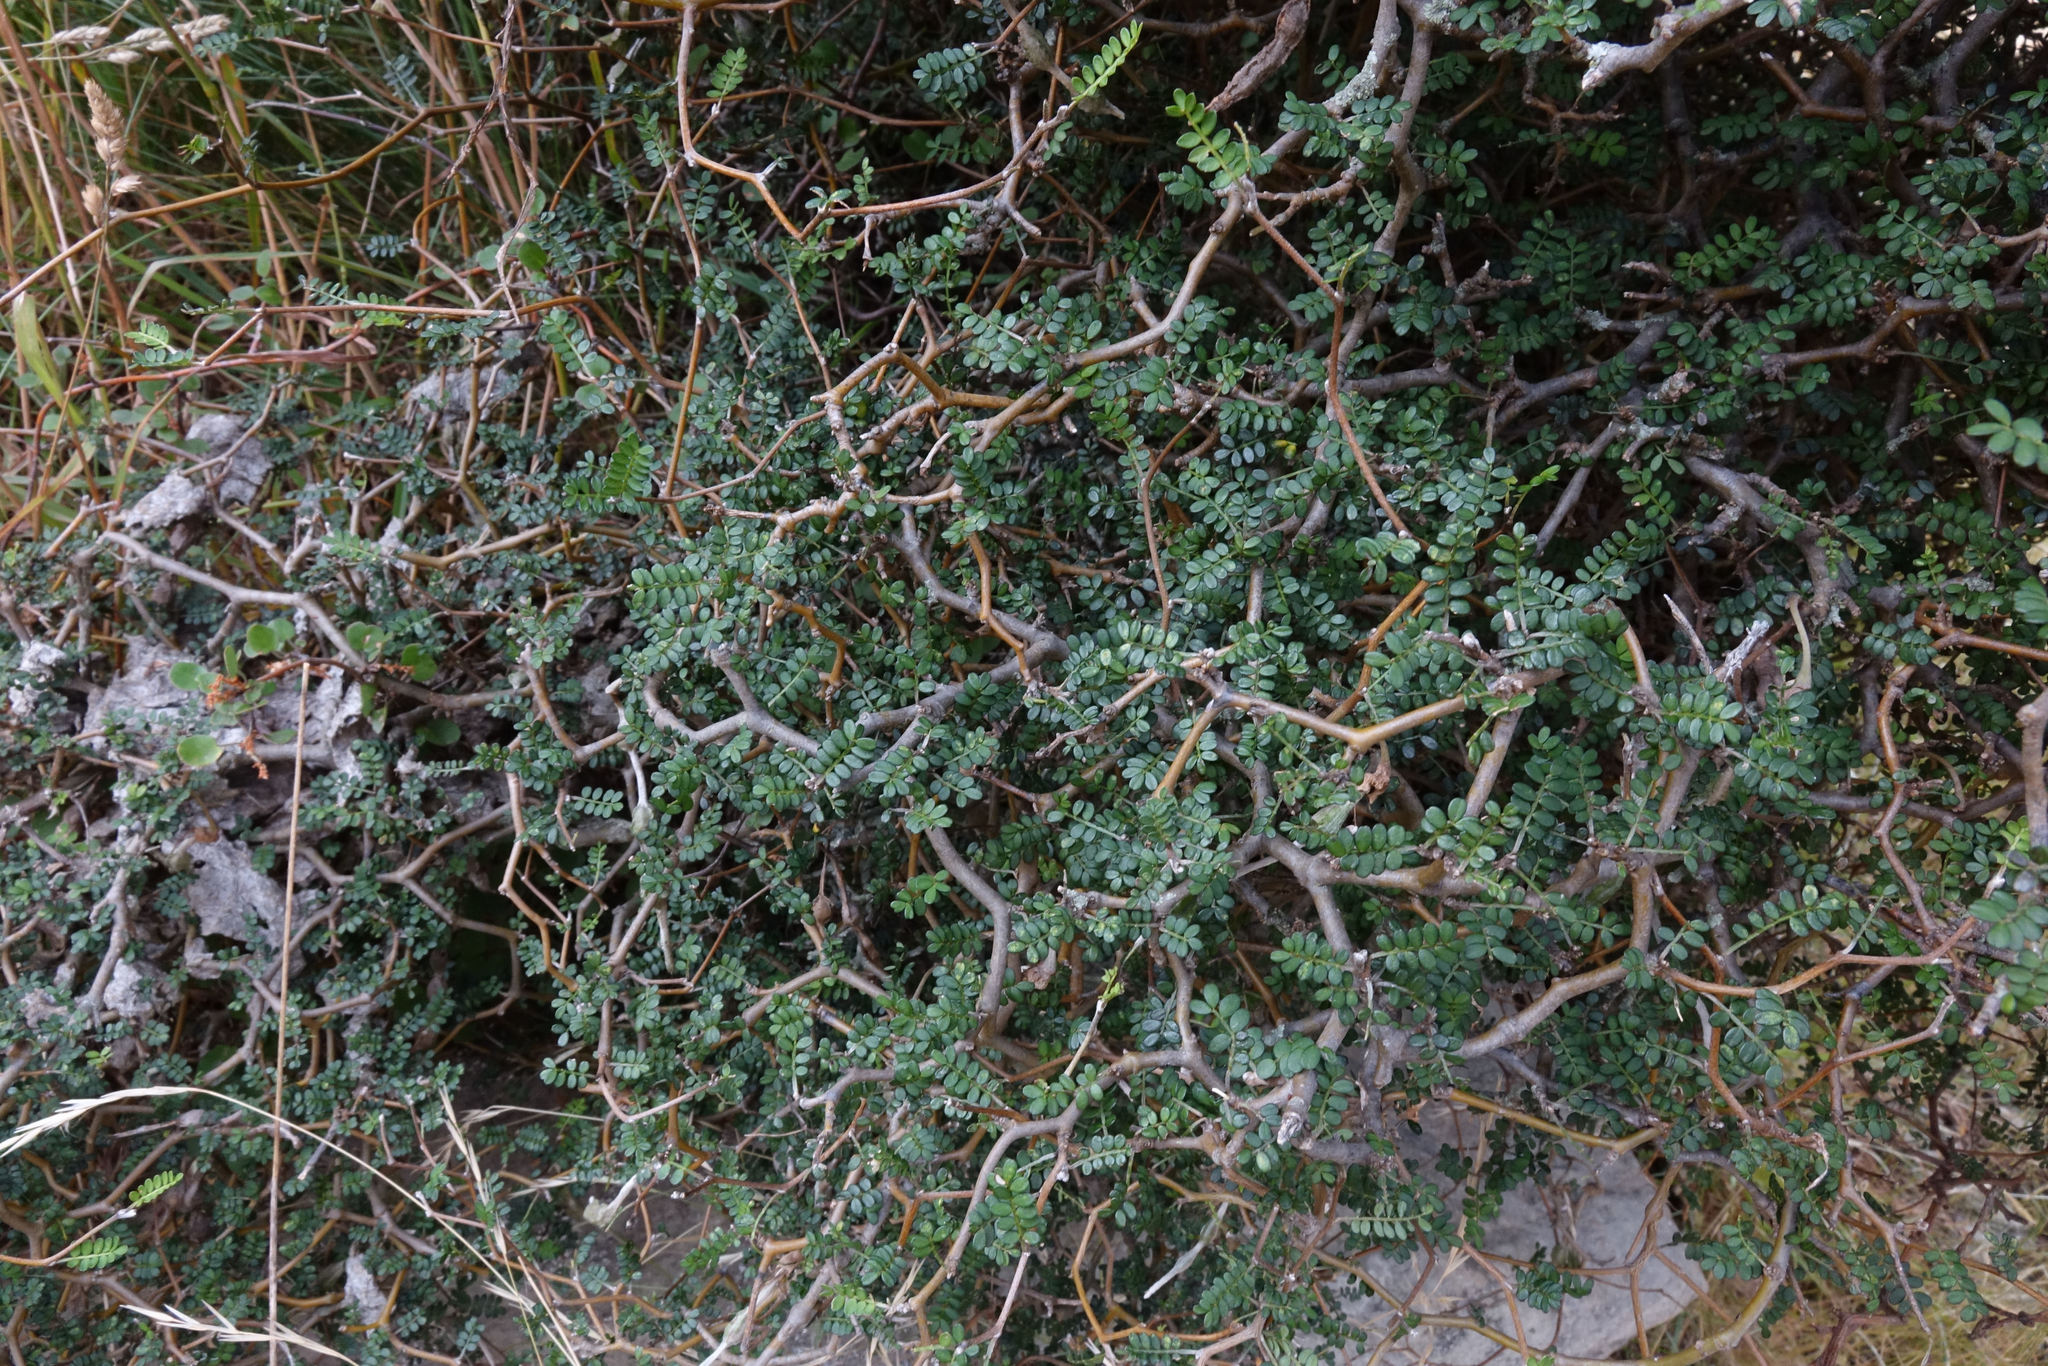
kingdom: Plantae
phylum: Tracheophyta
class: Magnoliopsida
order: Fabales
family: Fabaceae
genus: Sophora
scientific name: Sophora prostrata
